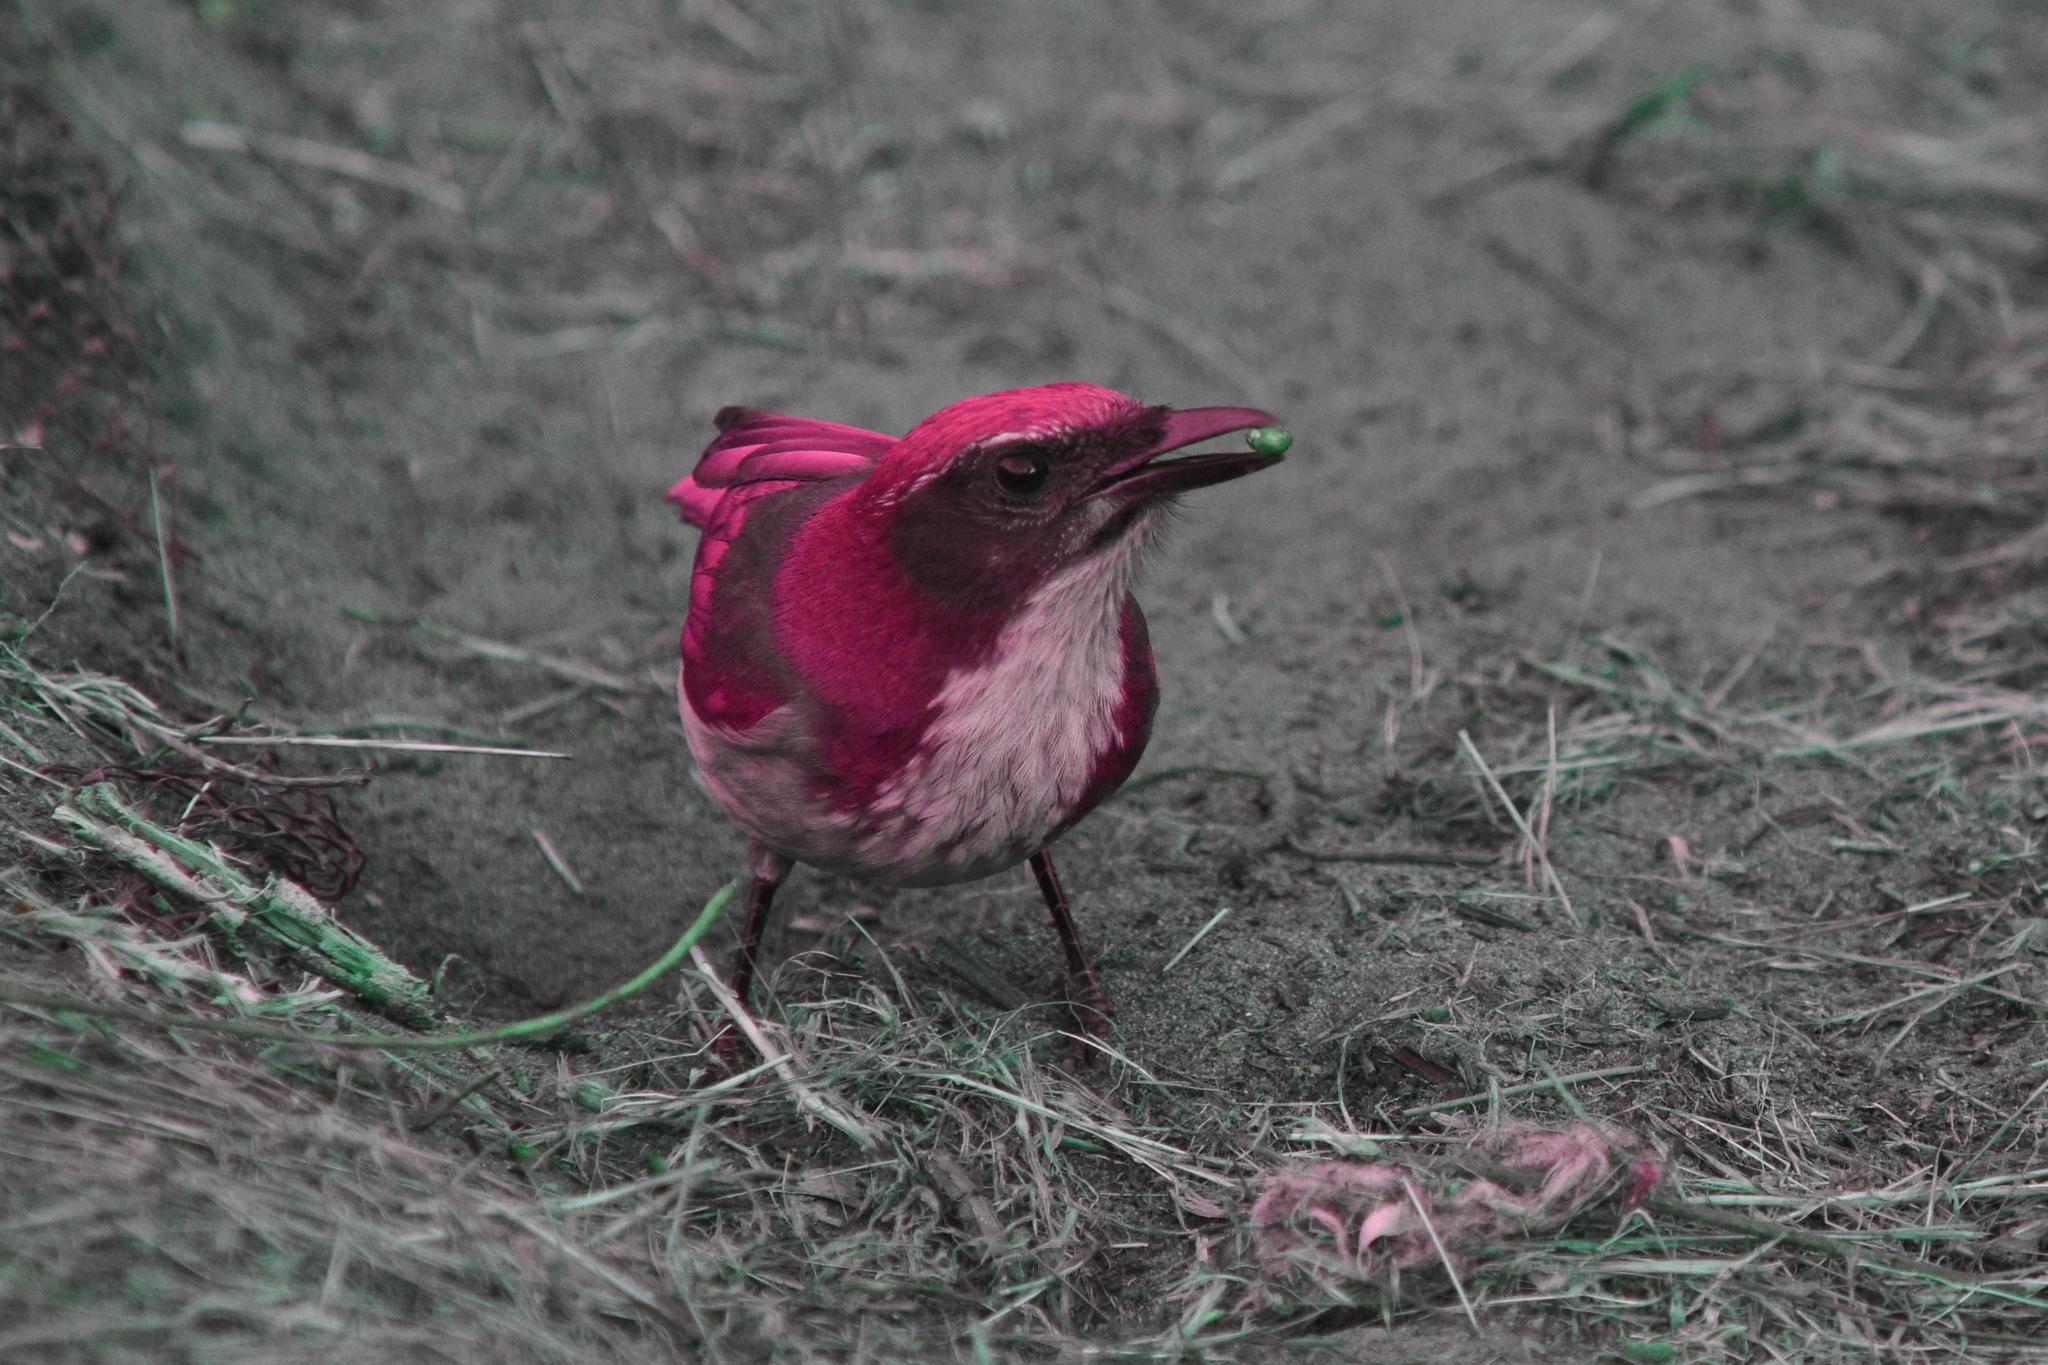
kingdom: Animalia
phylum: Chordata
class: Aves
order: Passeriformes
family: Corvidae
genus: Aphelocoma
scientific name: Aphelocoma californica
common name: California scrub-jay
